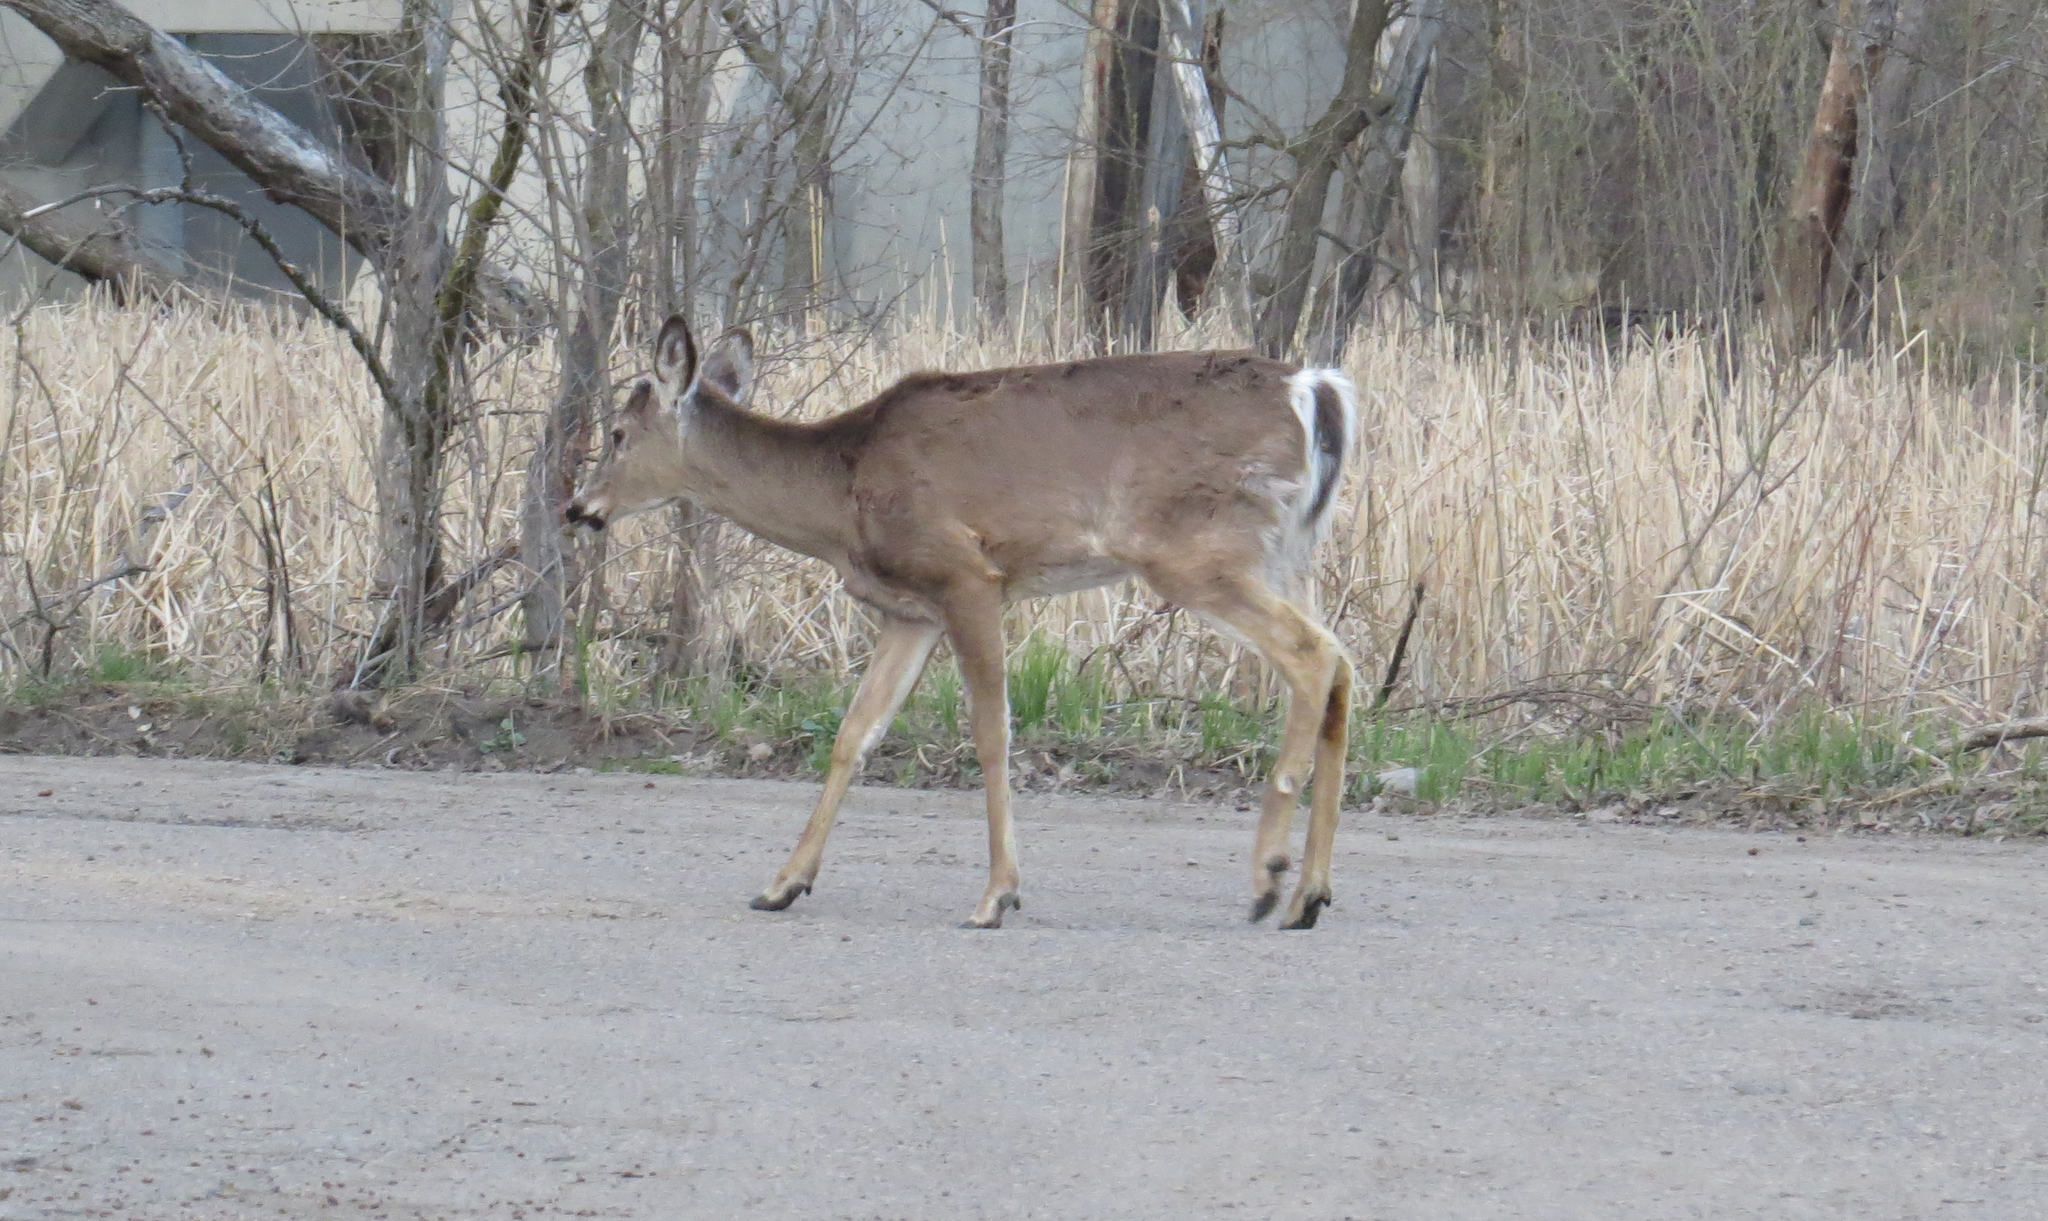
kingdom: Animalia
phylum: Chordata
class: Mammalia
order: Artiodactyla
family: Cervidae
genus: Odocoileus
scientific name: Odocoileus virginianus
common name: White-tailed deer
